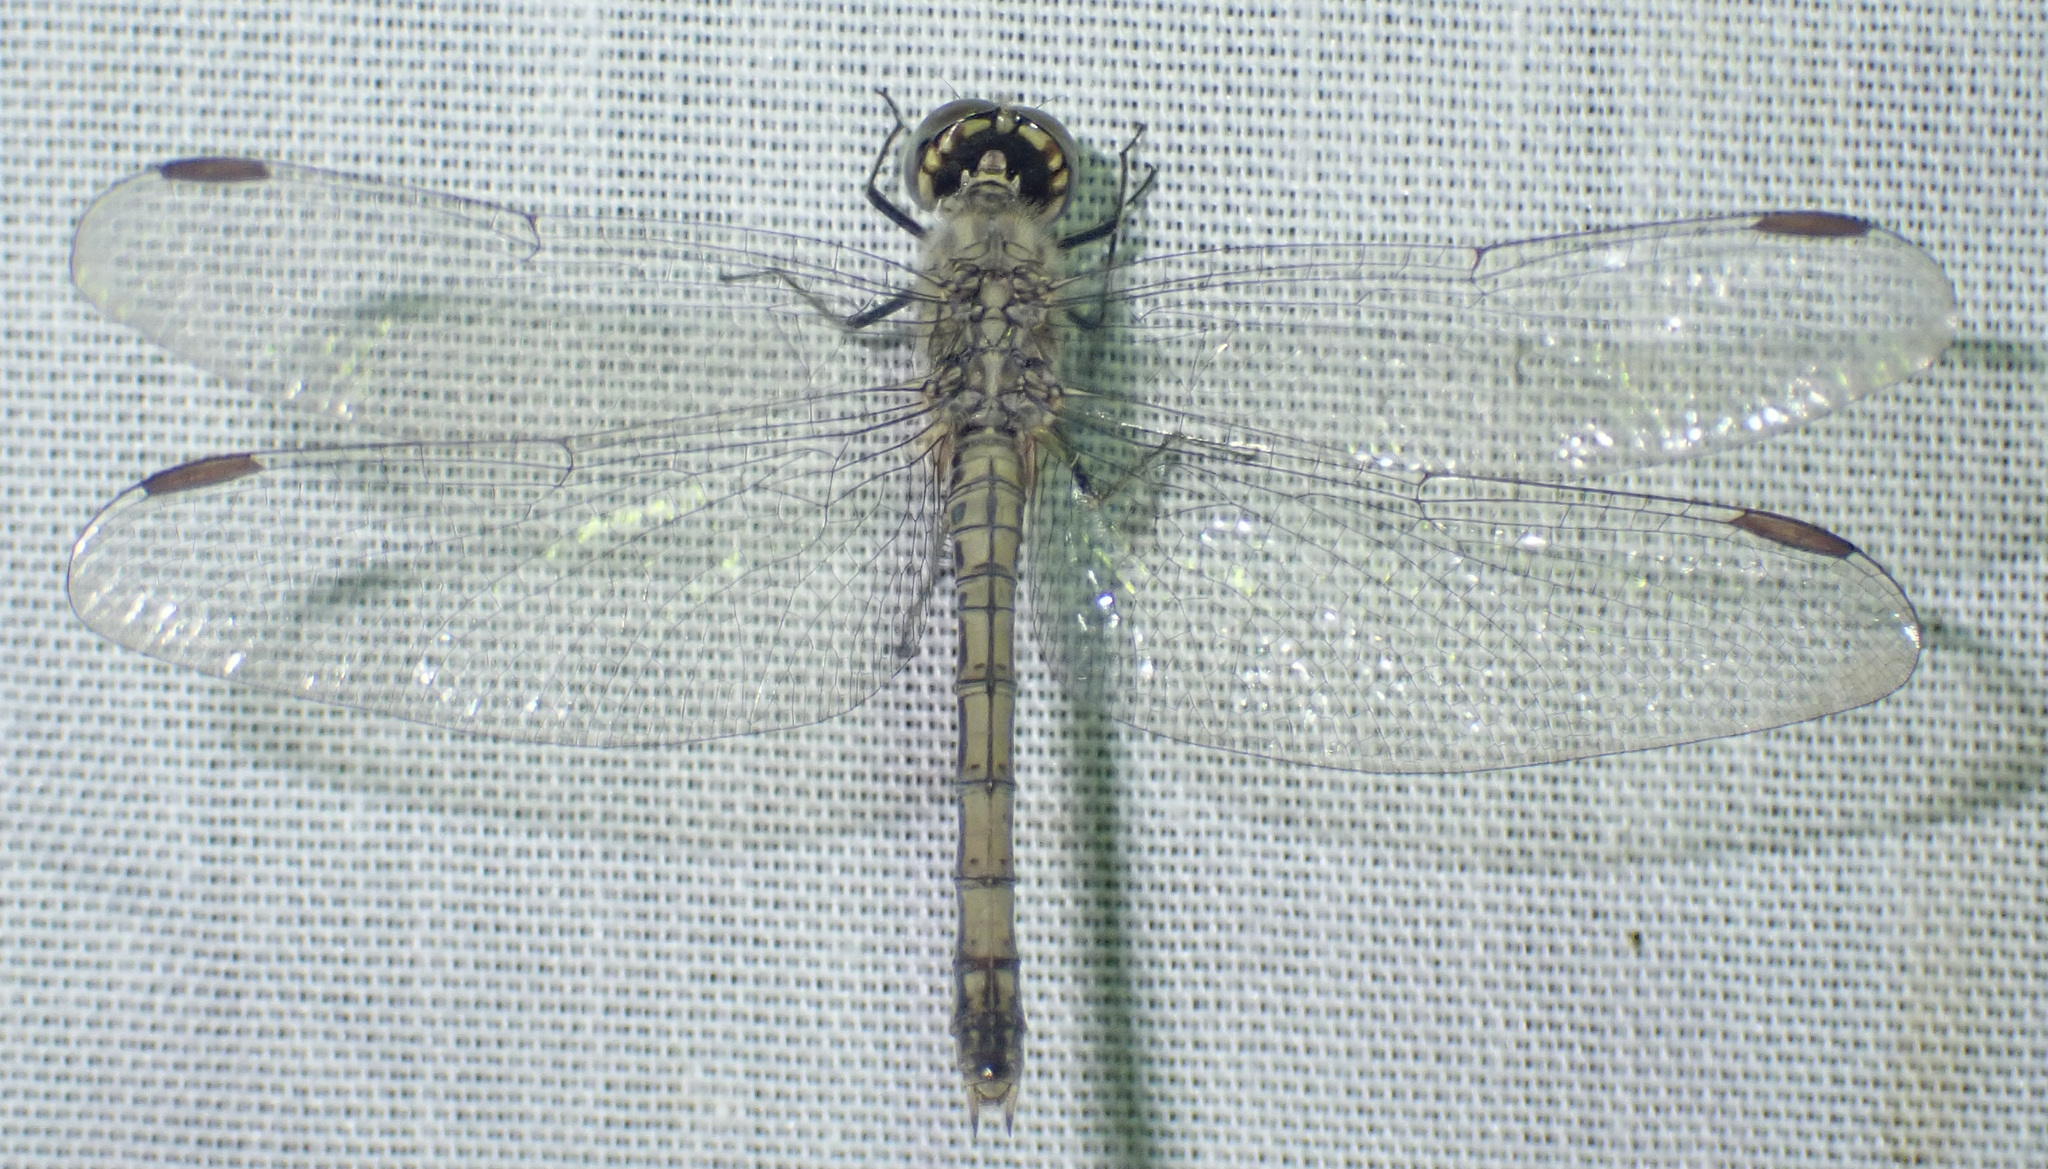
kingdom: Animalia
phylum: Arthropoda
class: Insecta
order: Odonata
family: Libellulidae
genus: Brachythemis
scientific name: Brachythemis leucosticta
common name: Banded groundling
